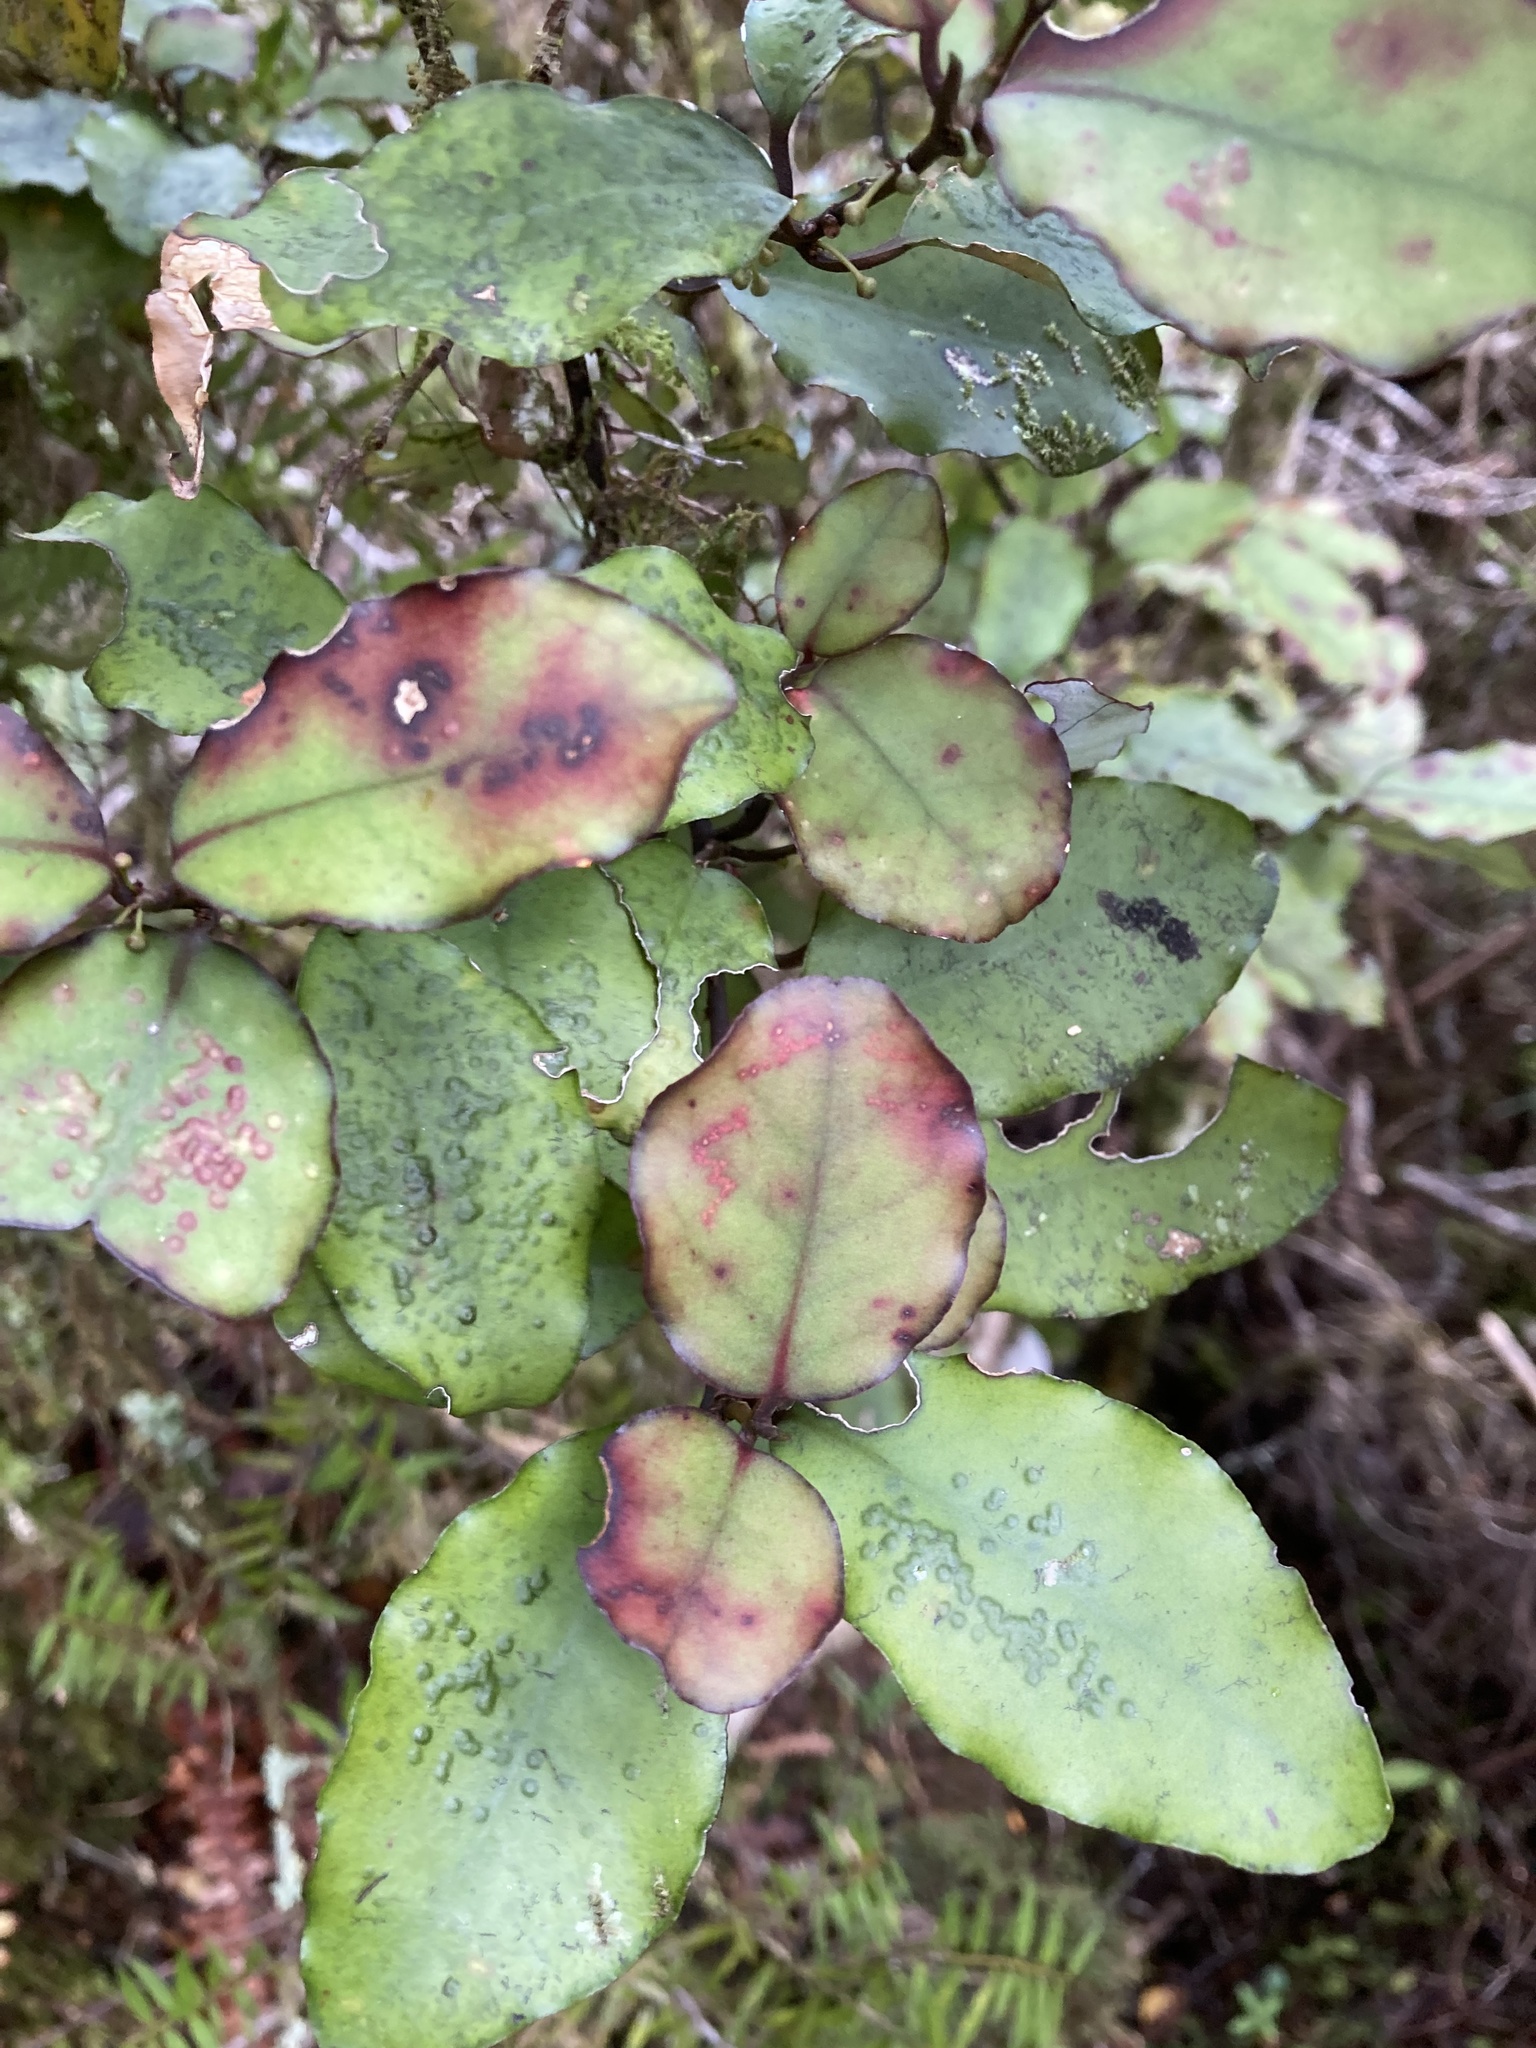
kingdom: Plantae
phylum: Tracheophyta
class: Magnoliopsida
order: Canellales
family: Winteraceae
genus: Pseudowintera
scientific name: Pseudowintera colorata
